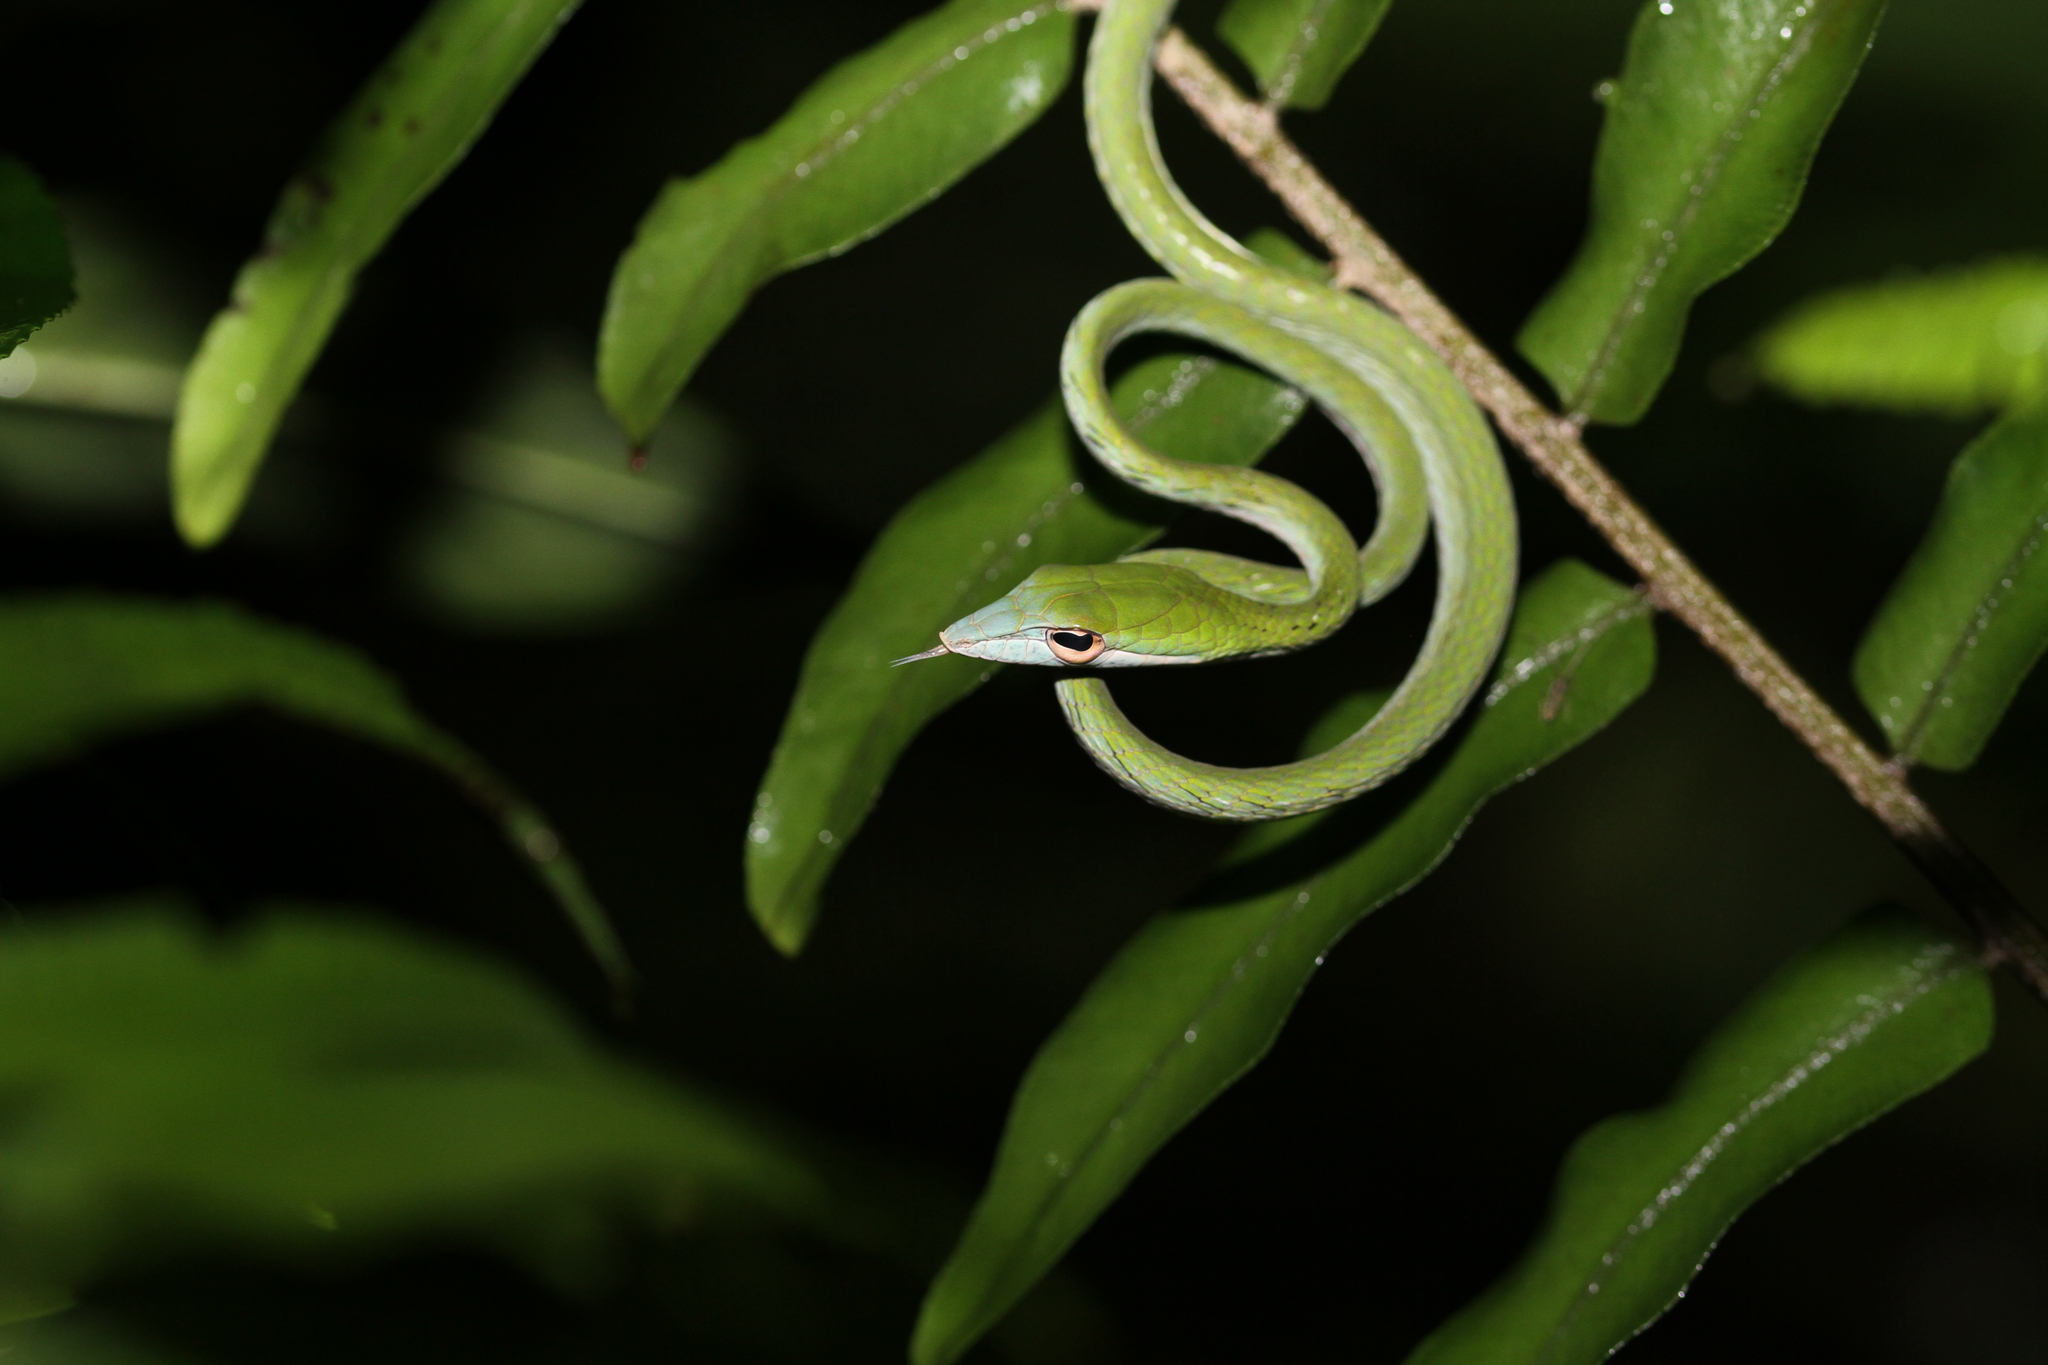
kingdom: Animalia
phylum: Chordata
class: Squamata
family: Colubridae
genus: Ahaetulla
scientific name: Ahaetulla prasina
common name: Oriental whip snake
